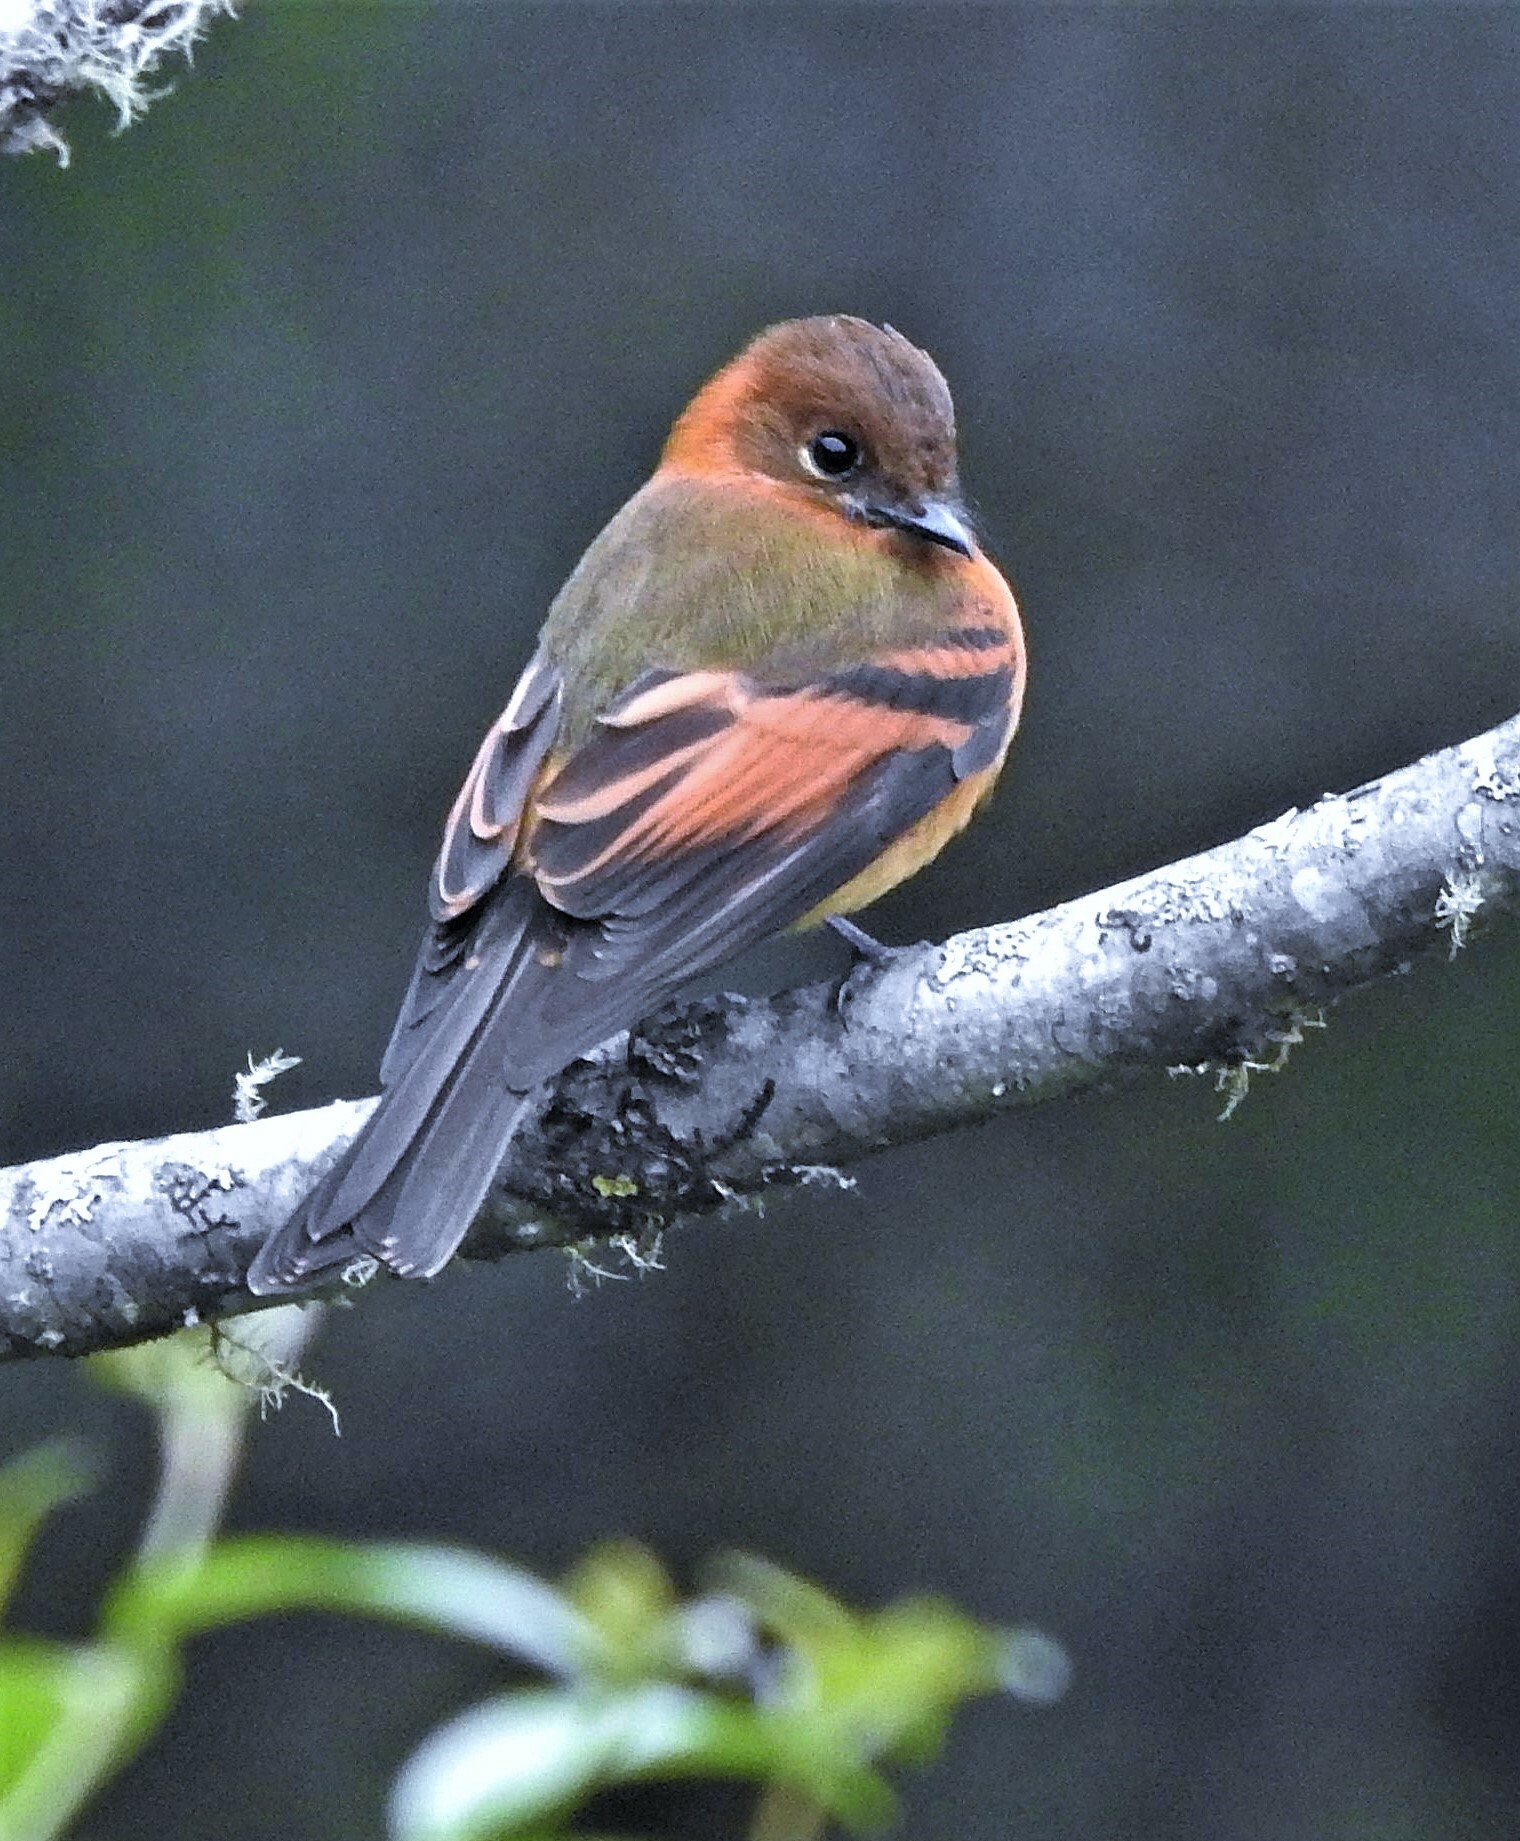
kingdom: Animalia
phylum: Chordata
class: Aves
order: Passeriformes
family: Tyrannidae
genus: Pyrrhomyias
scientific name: Pyrrhomyias cinnamomeus
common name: Cinnamon flycatcher
